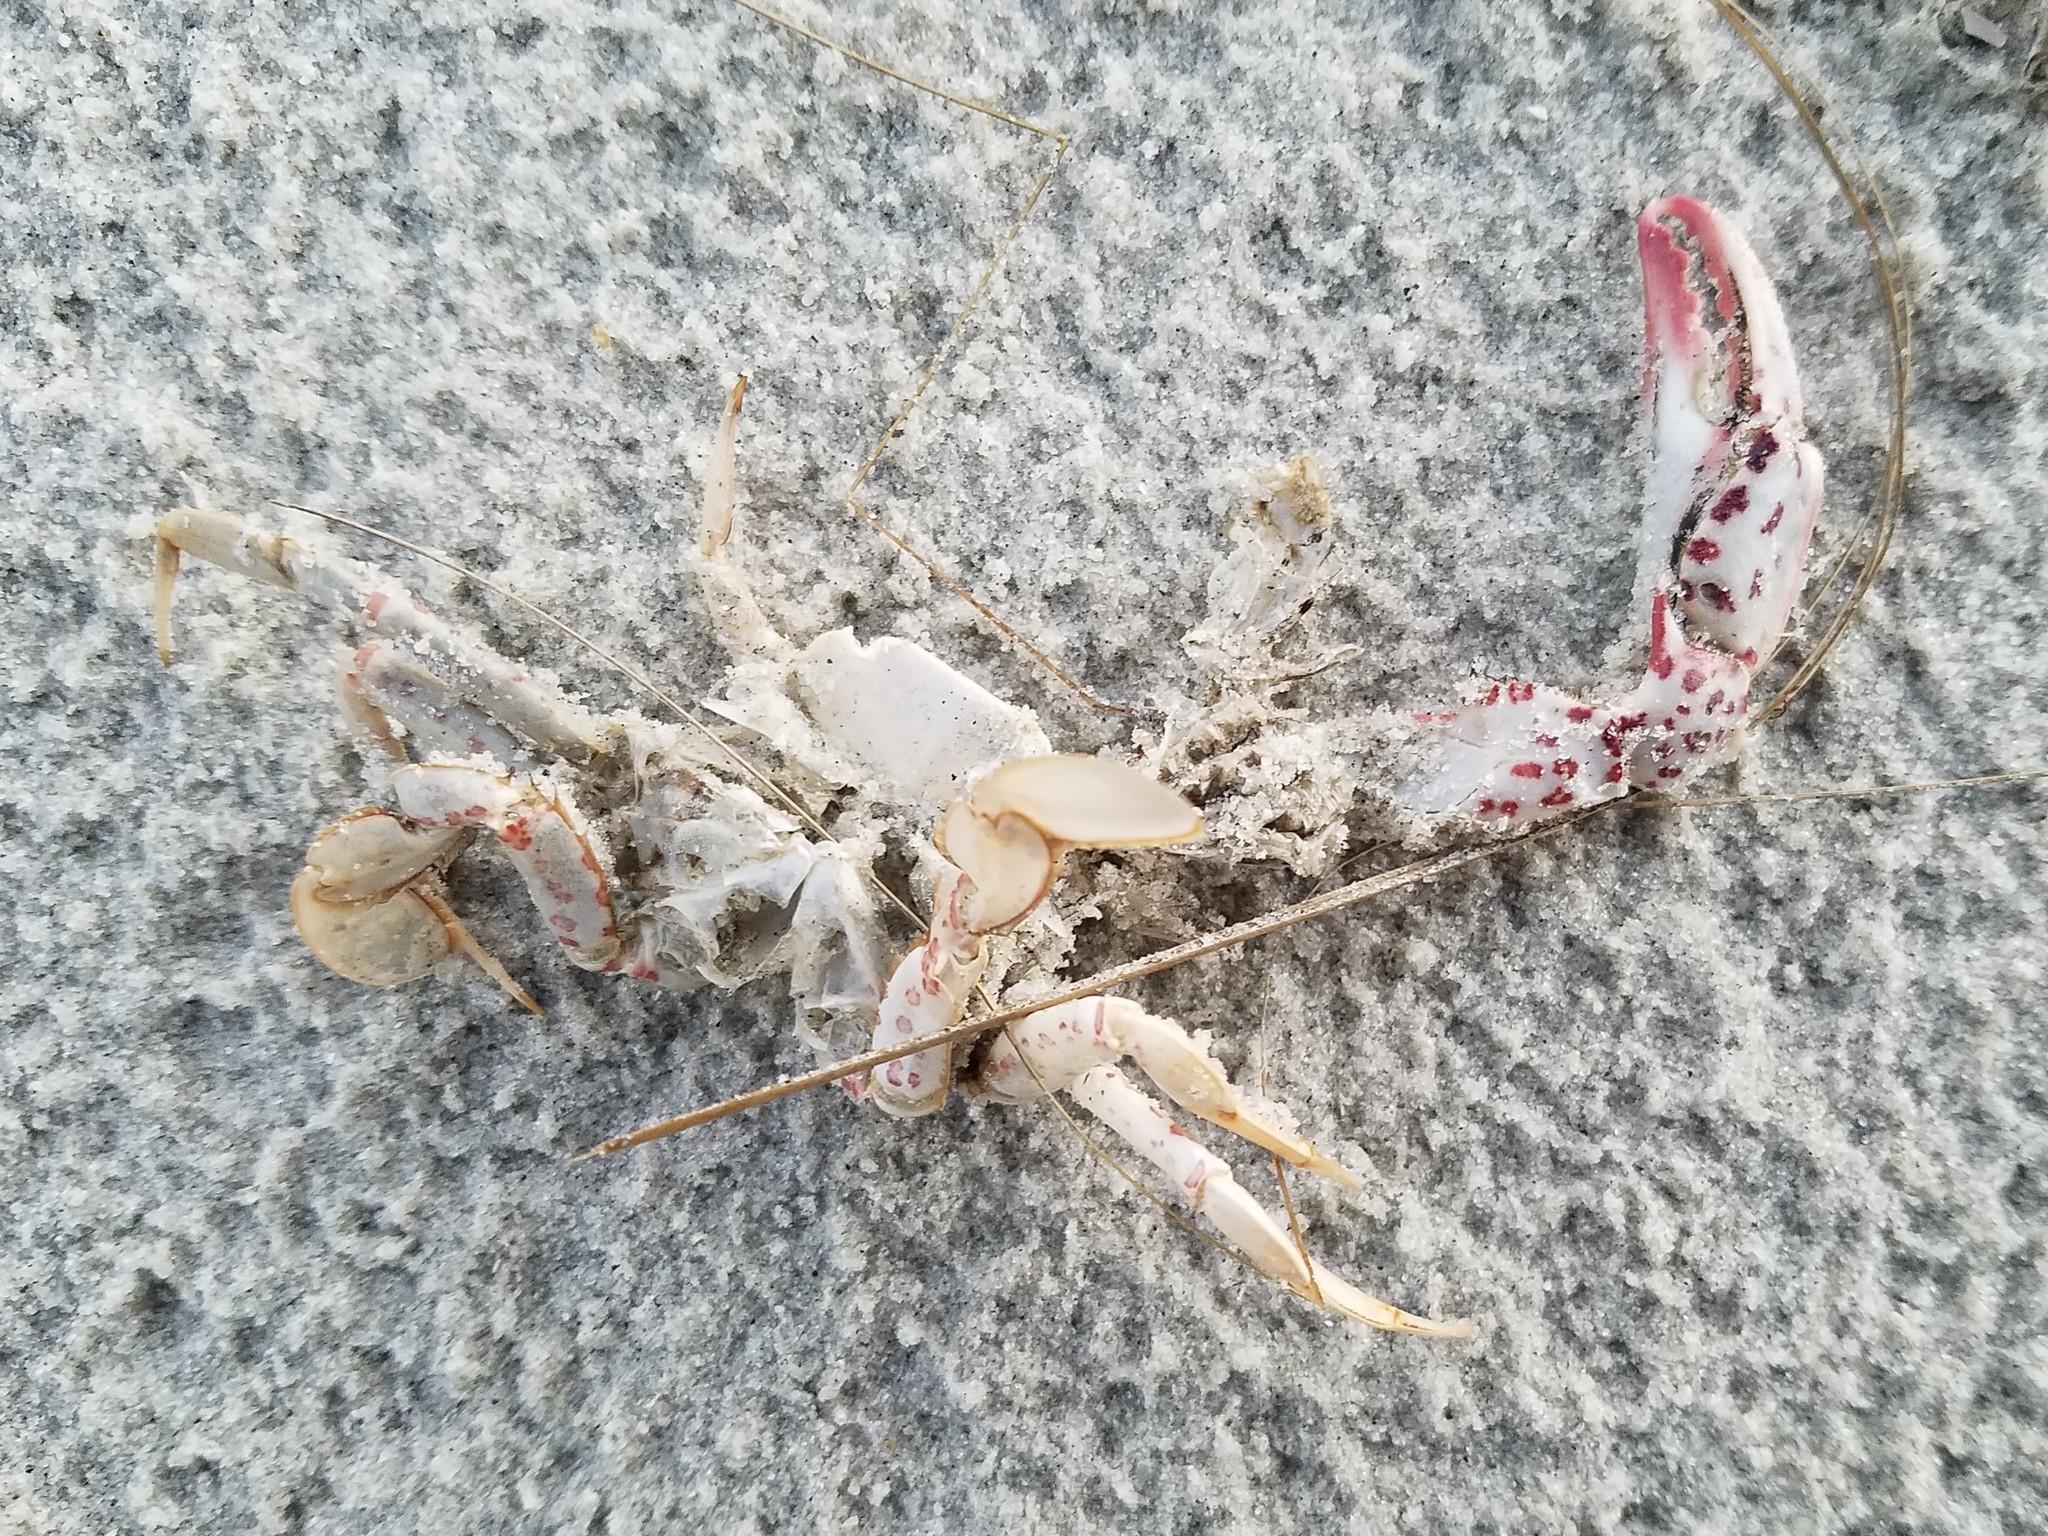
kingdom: Animalia
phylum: Arthropoda
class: Malacostraca
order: Decapoda
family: Ovalipidae
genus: Ovalipes
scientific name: Ovalipes ocellatus
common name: Lady crab
